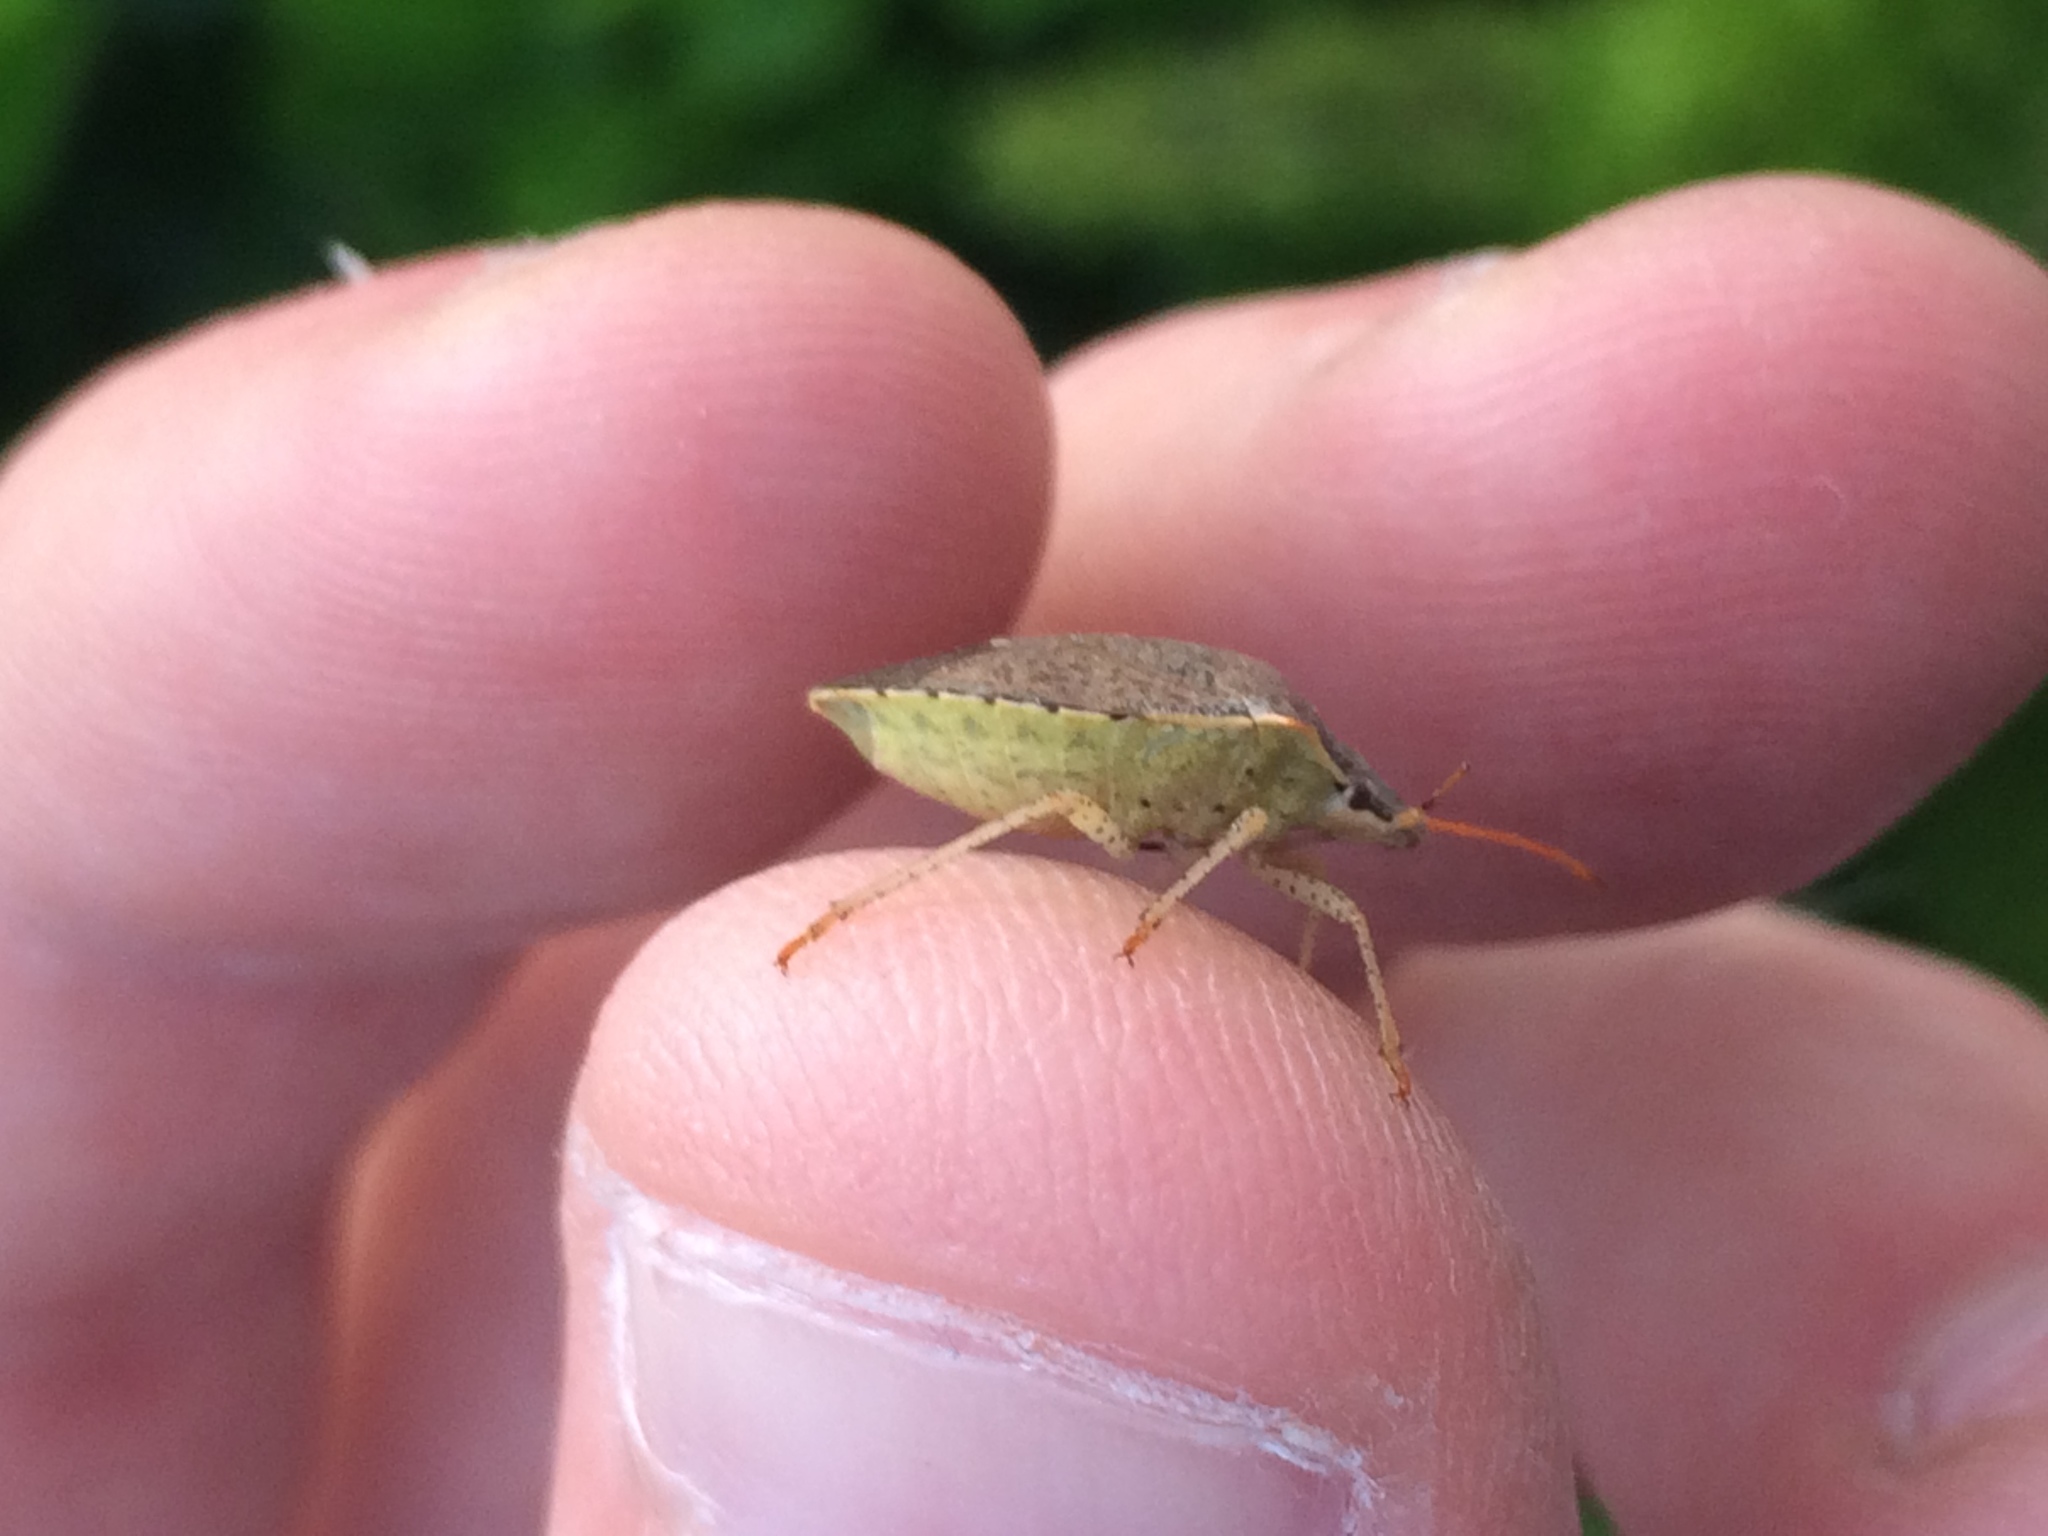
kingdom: Animalia
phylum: Arthropoda
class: Insecta
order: Hemiptera
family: Pentatomidae
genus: Euschistus
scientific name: Euschistus conspersus
